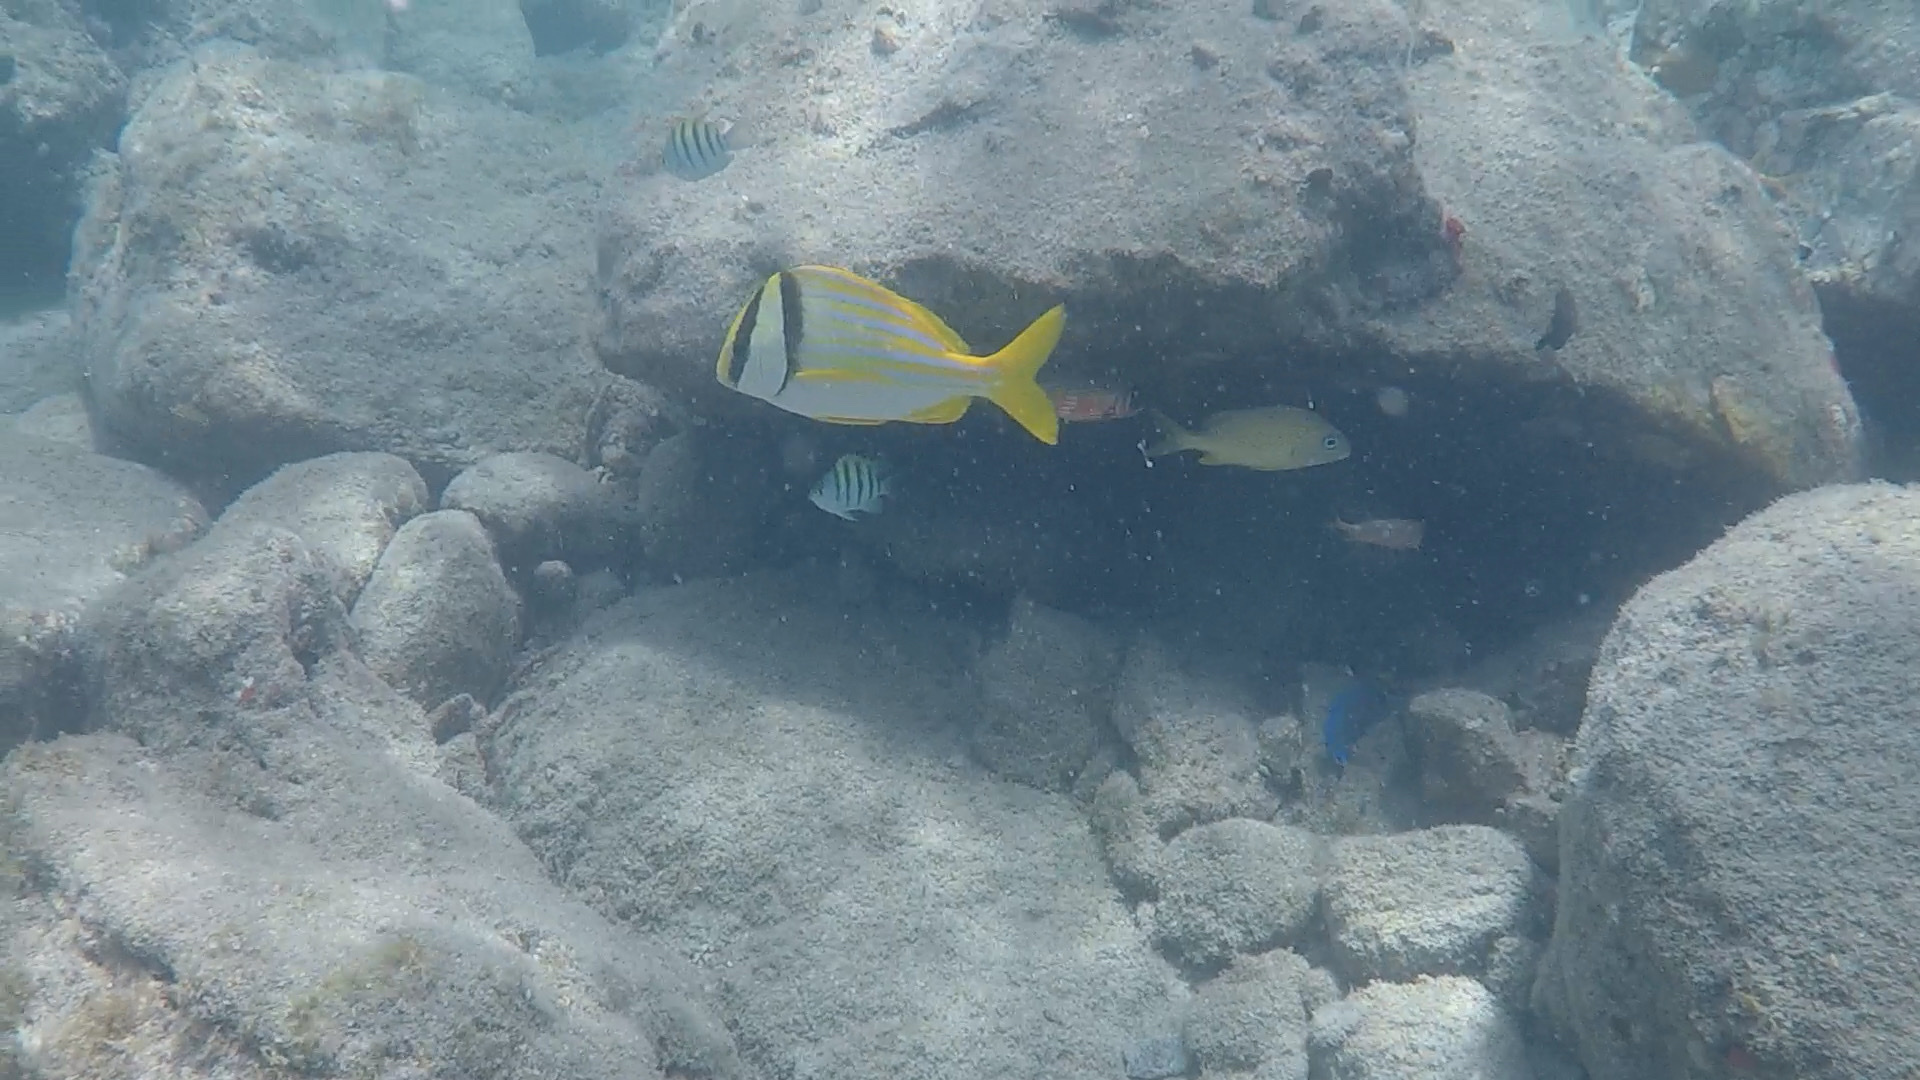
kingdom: Animalia
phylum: Chordata
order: Perciformes
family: Haemulidae
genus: Anisotremus
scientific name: Anisotremus virginicus
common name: Porkfish
